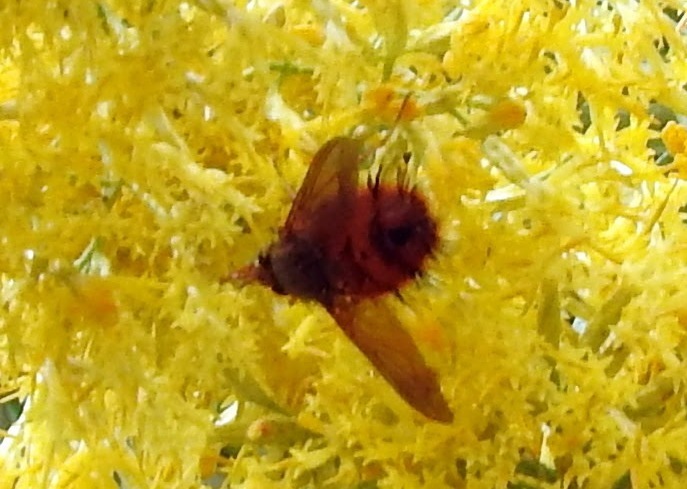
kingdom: Animalia
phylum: Arthropoda
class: Insecta
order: Diptera
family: Tachinidae
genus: Adejeania
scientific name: Adejeania vexatrix
